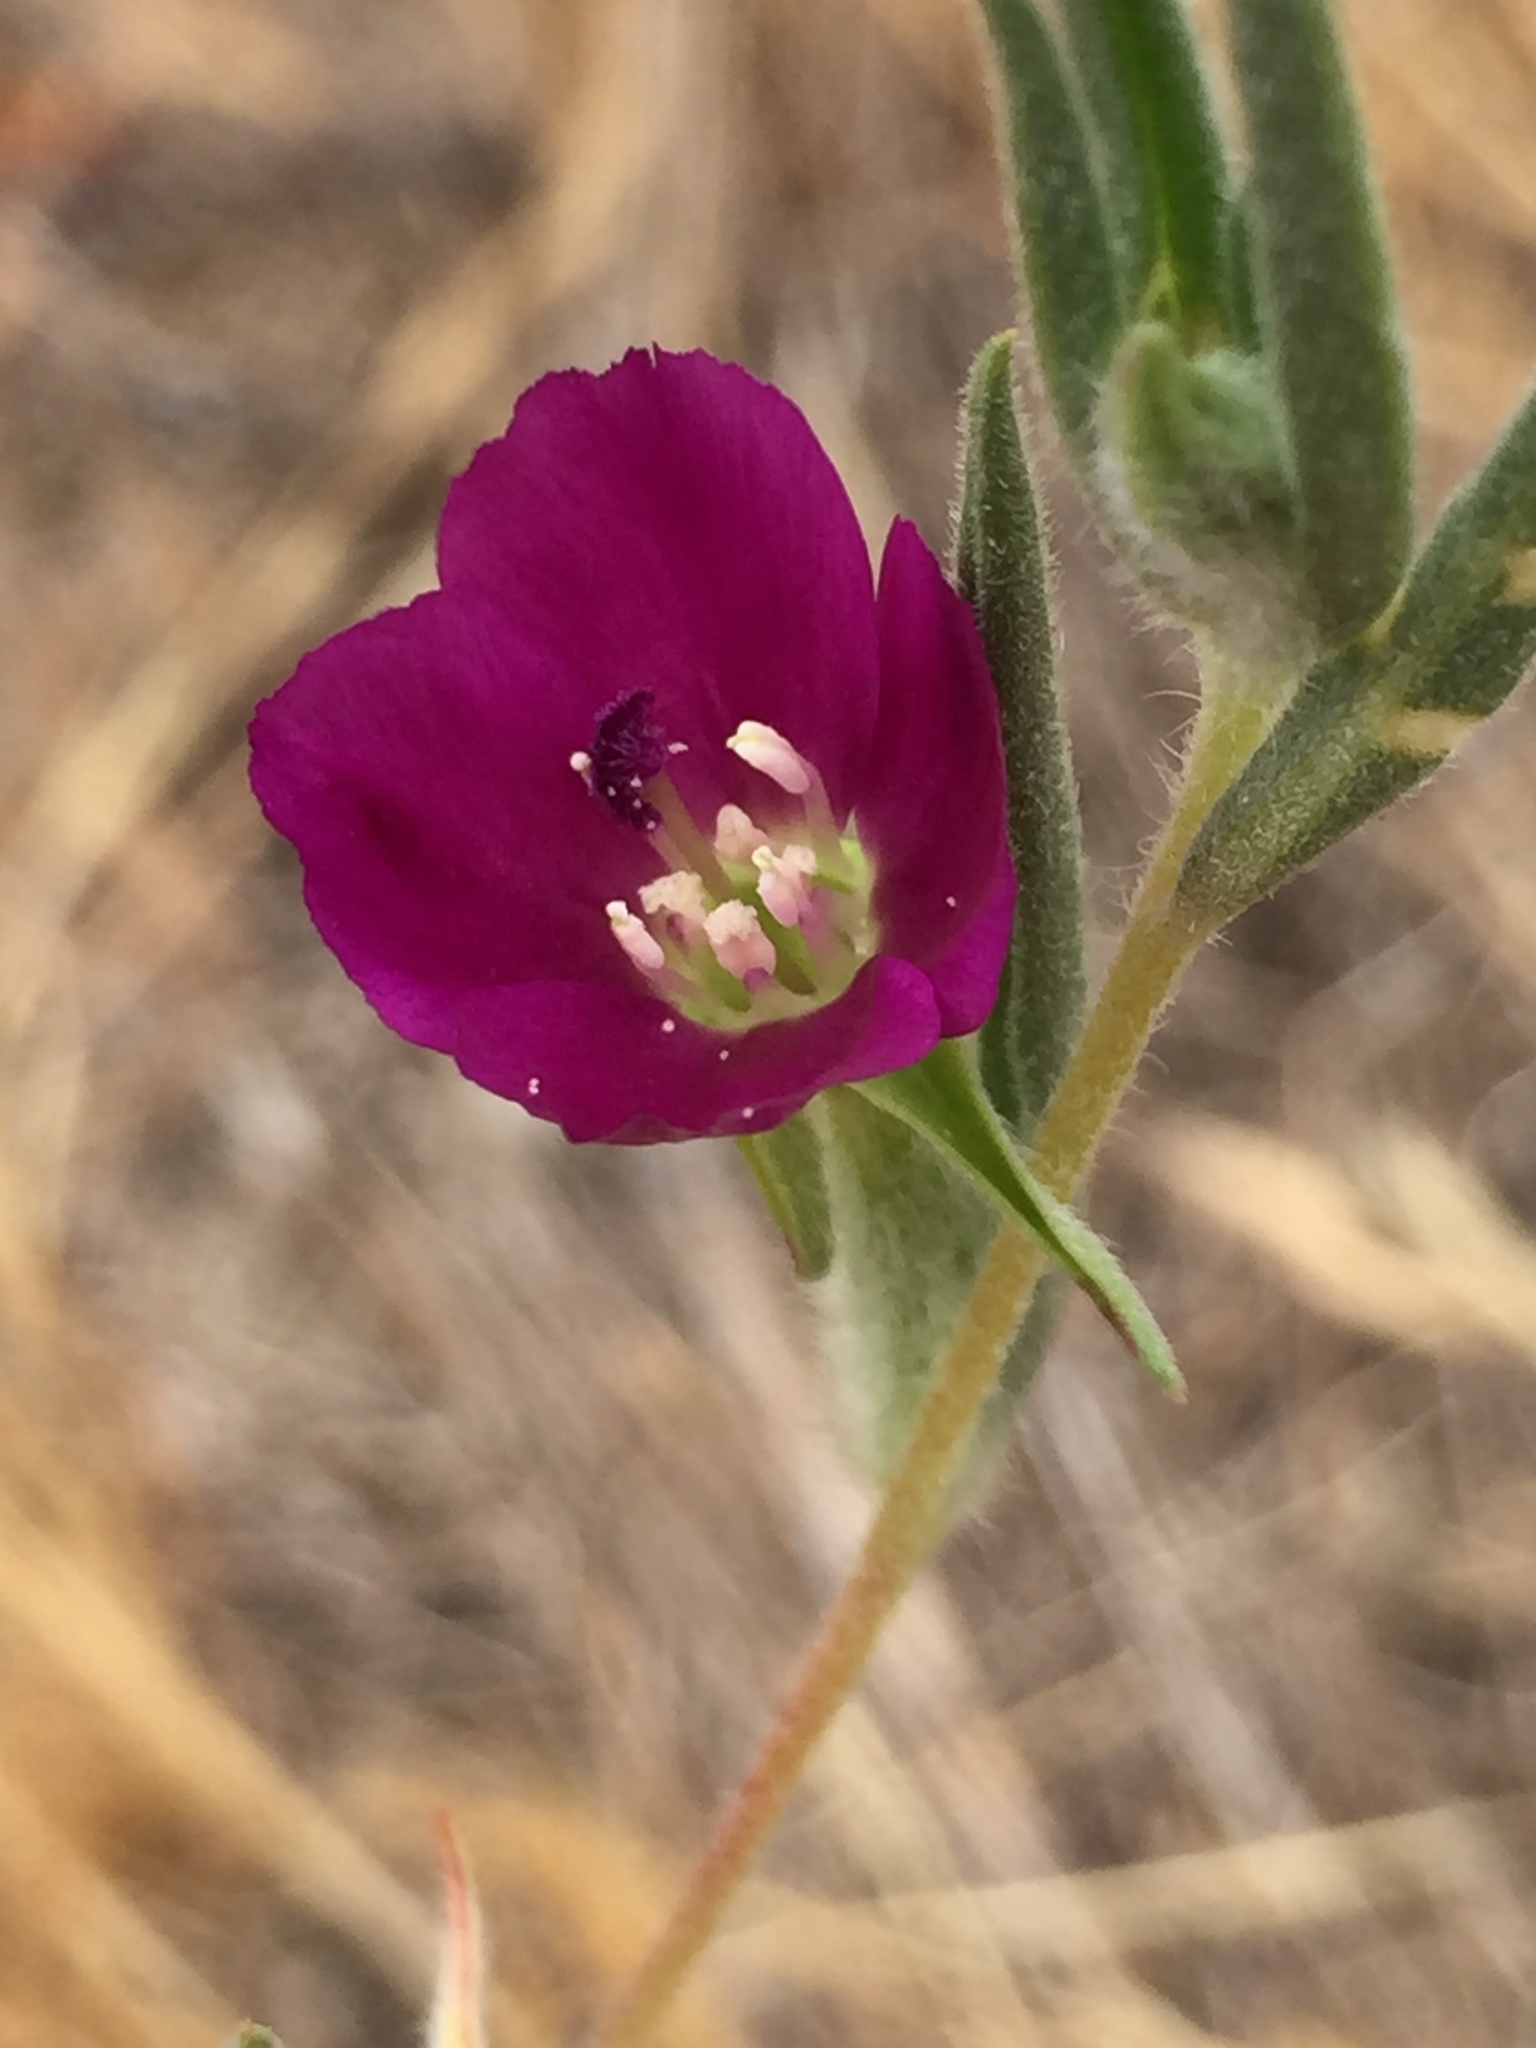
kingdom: Plantae
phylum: Tracheophyta
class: Magnoliopsida
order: Myrtales
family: Onagraceae
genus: Clarkia
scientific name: Clarkia purpurea
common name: Purple clarkia
